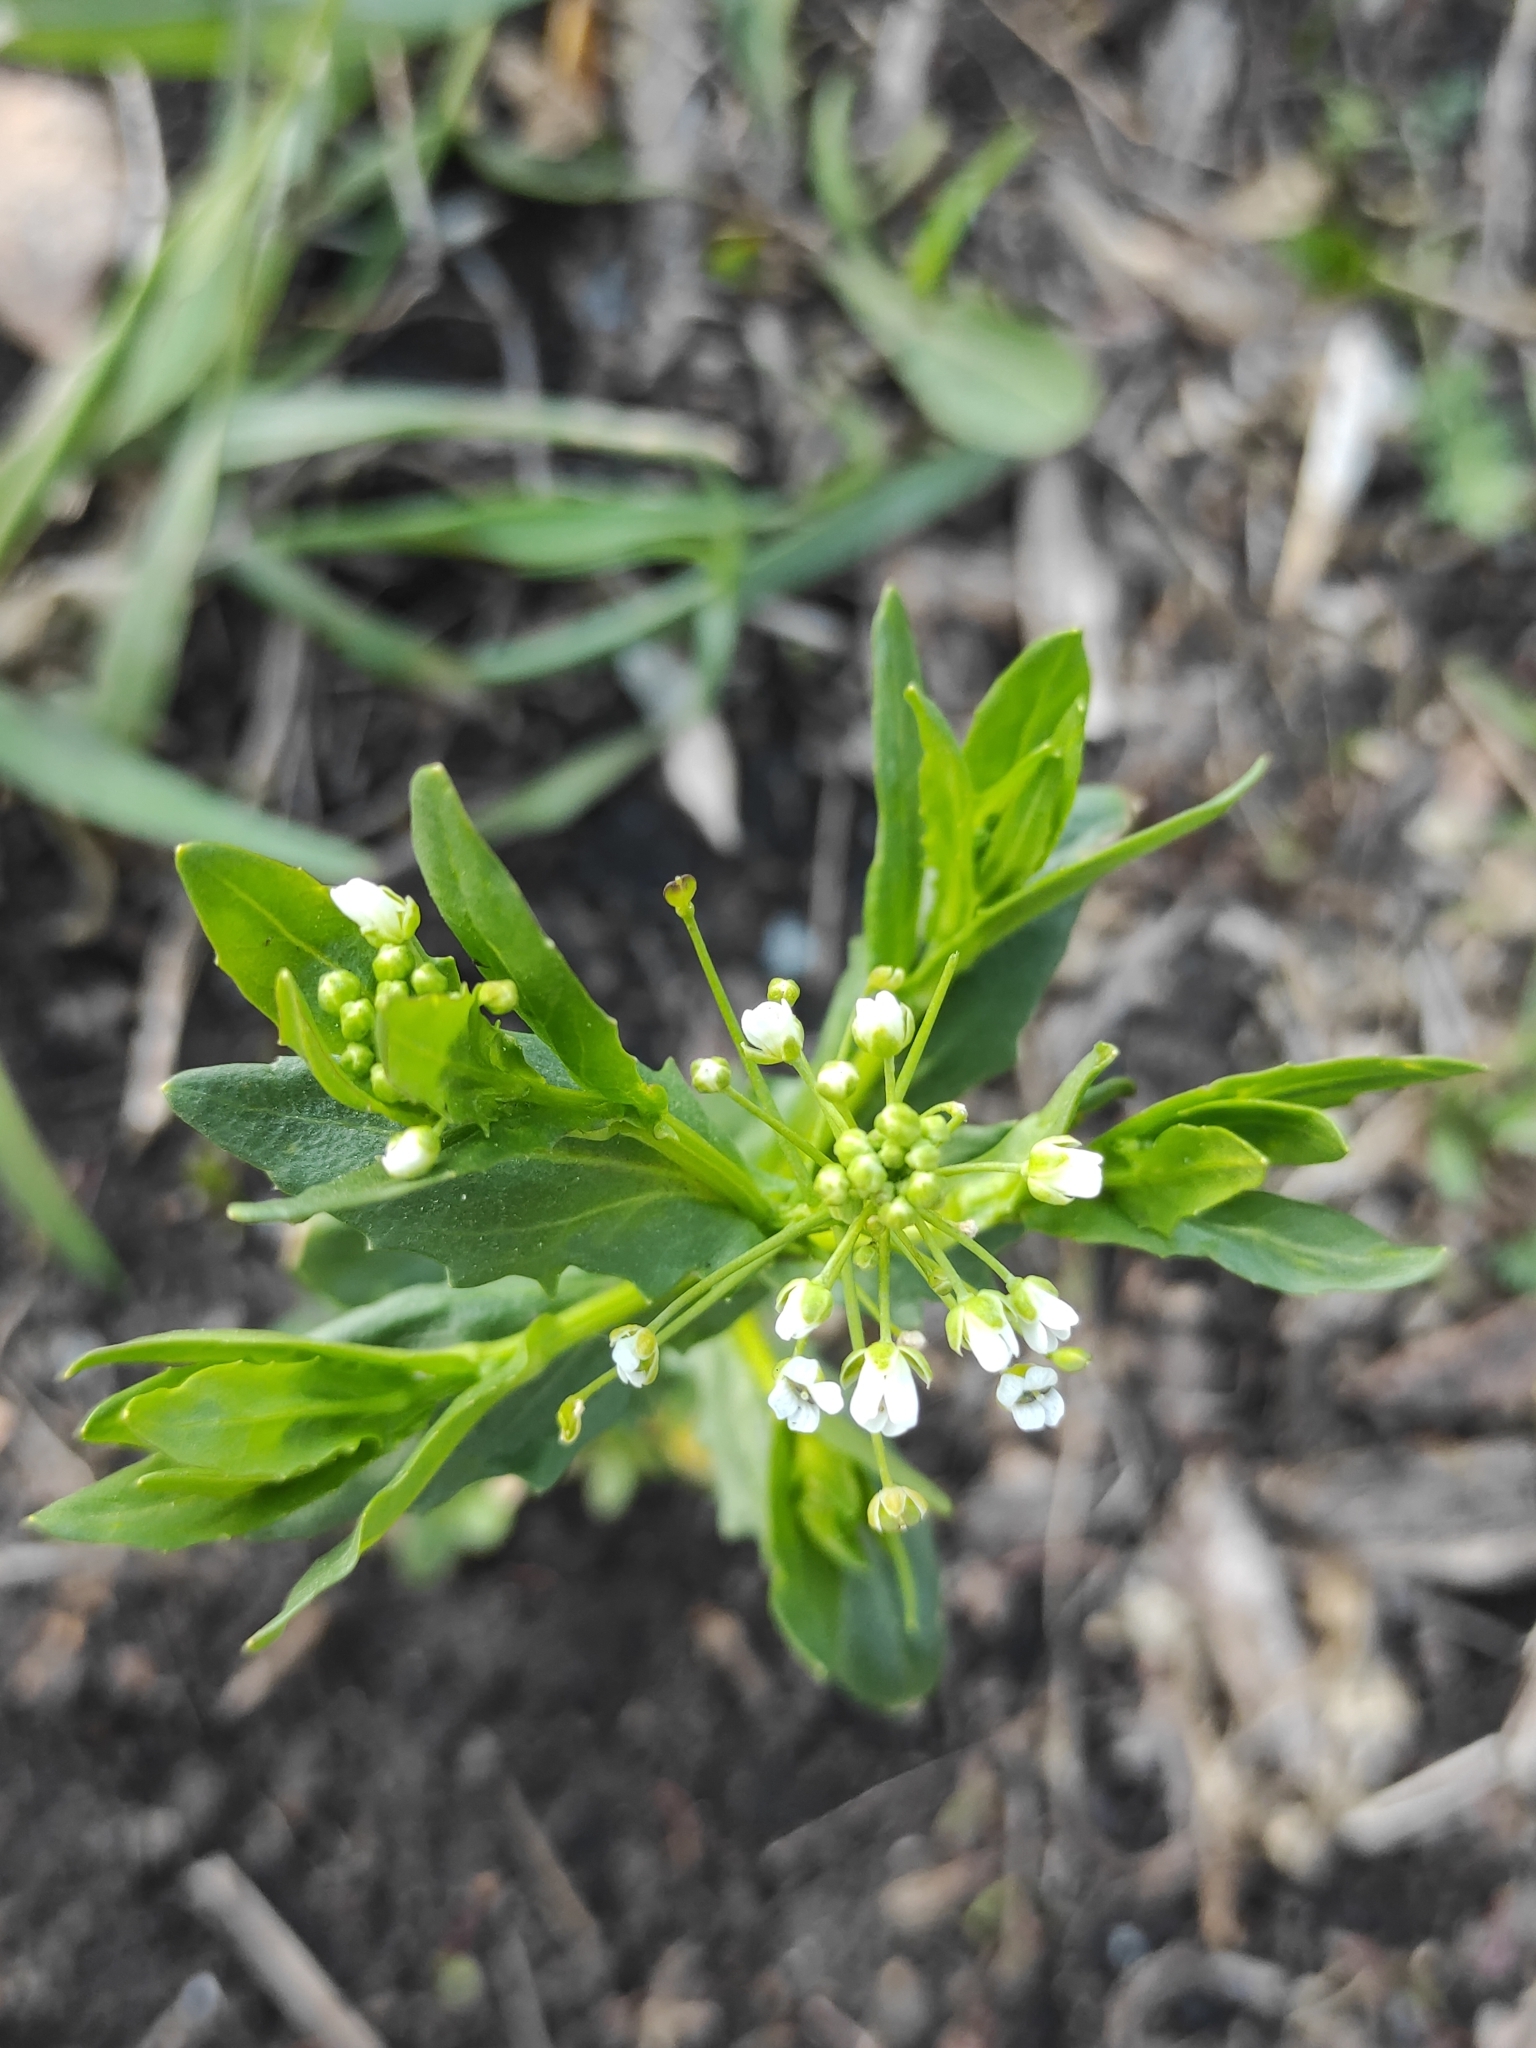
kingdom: Plantae
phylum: Tracheophyta
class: Magnoliopsida
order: Brassicales
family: Brassicaceae
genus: Thlaspi
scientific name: Thlaspi arvense
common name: Field pennycress
